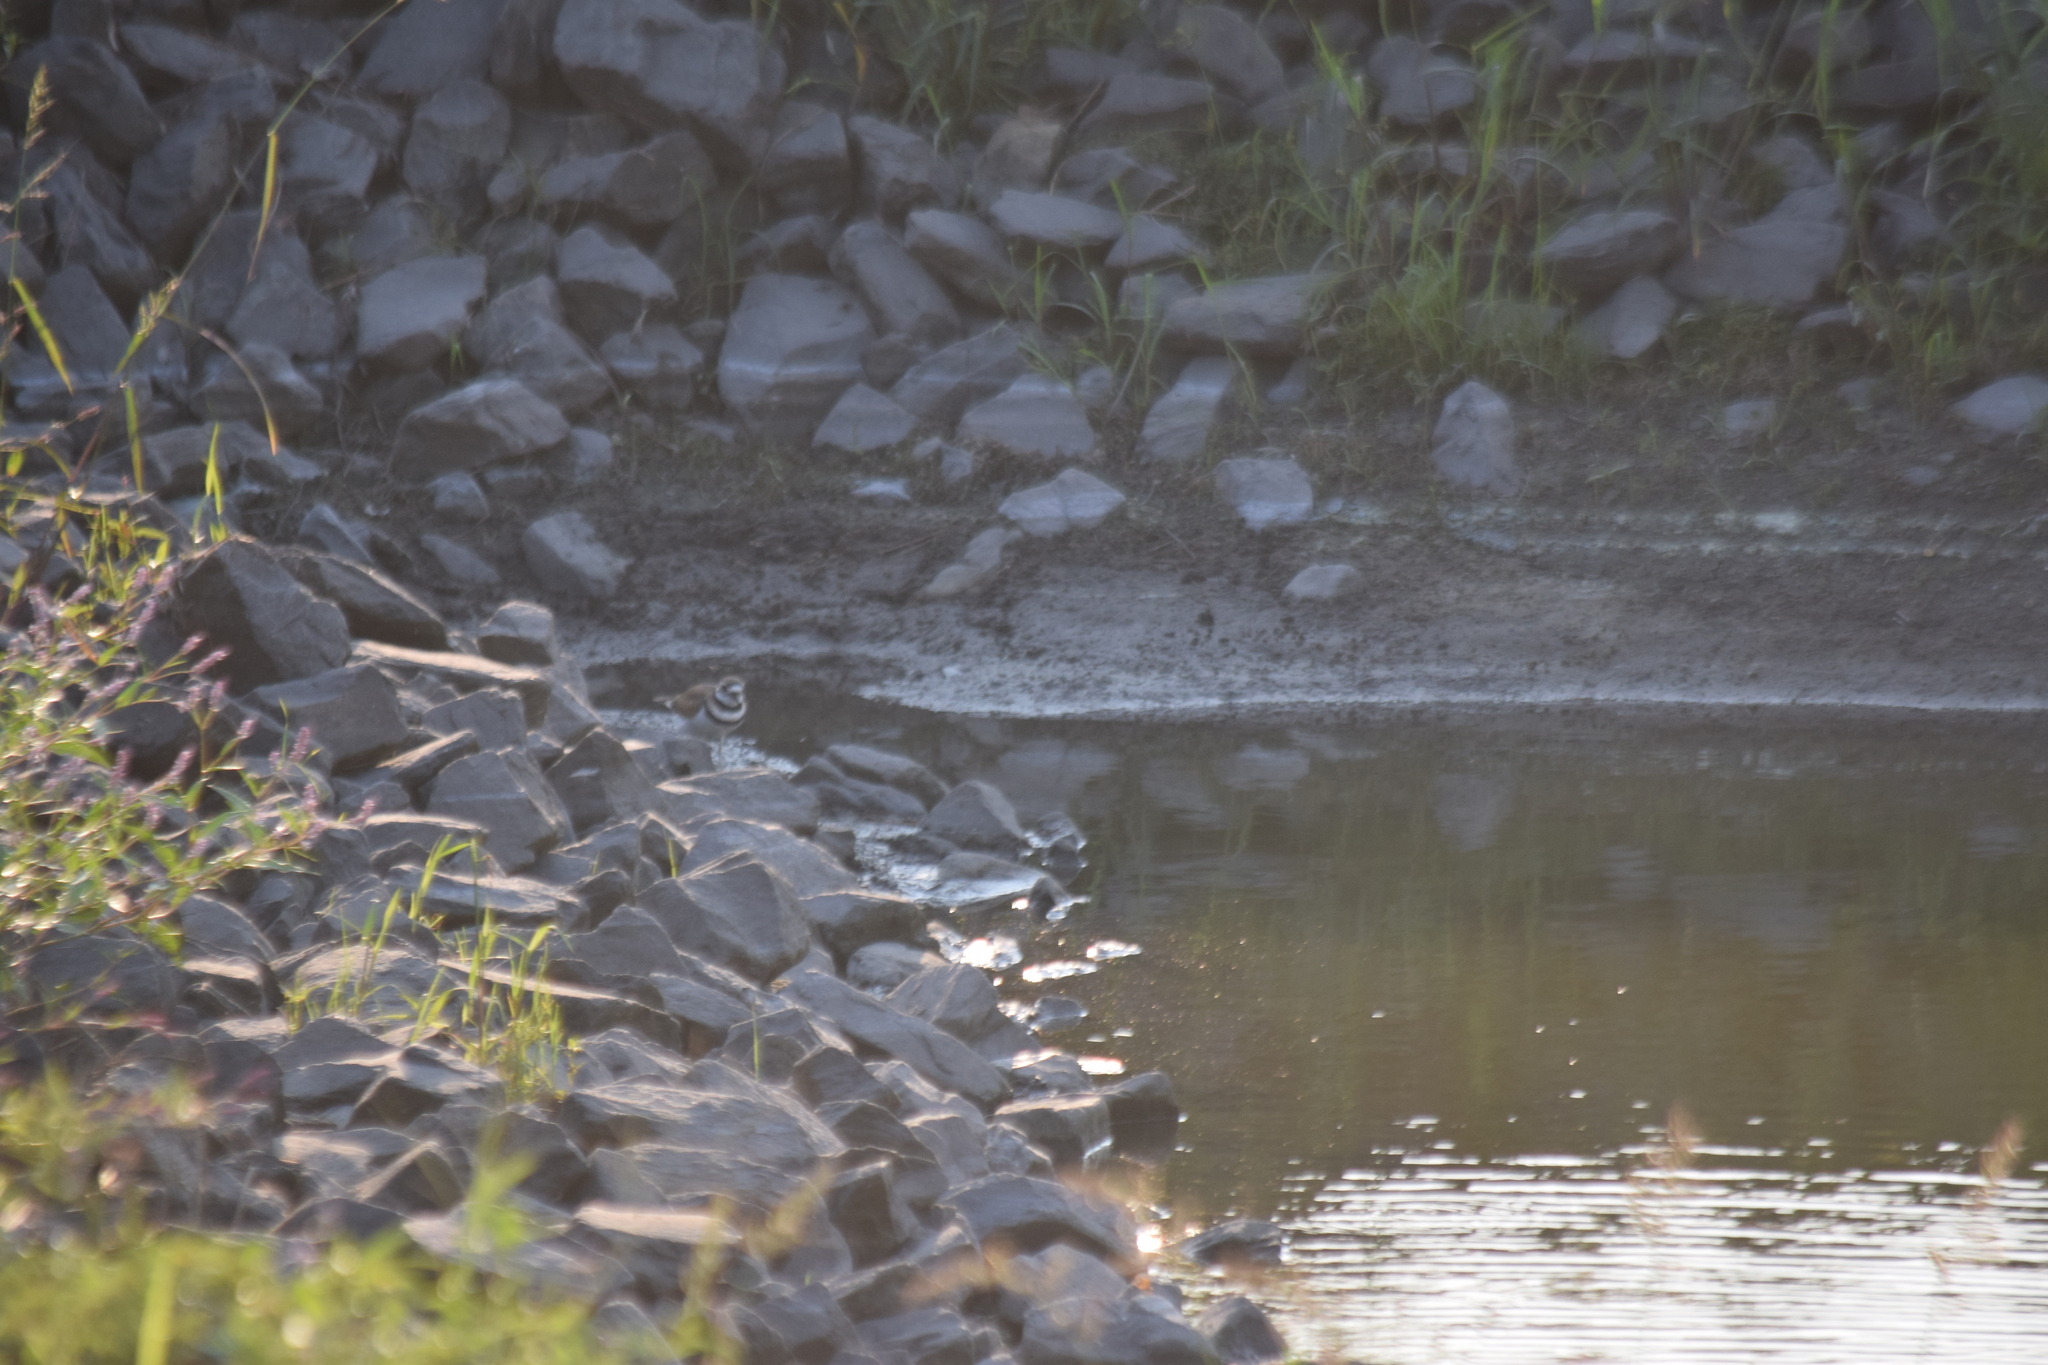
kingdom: Animalia
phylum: Chordata
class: Aves
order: Charadriiformes
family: Charadriidae
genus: Charadrius
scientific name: Charadrius vociferus
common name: Killdeer
